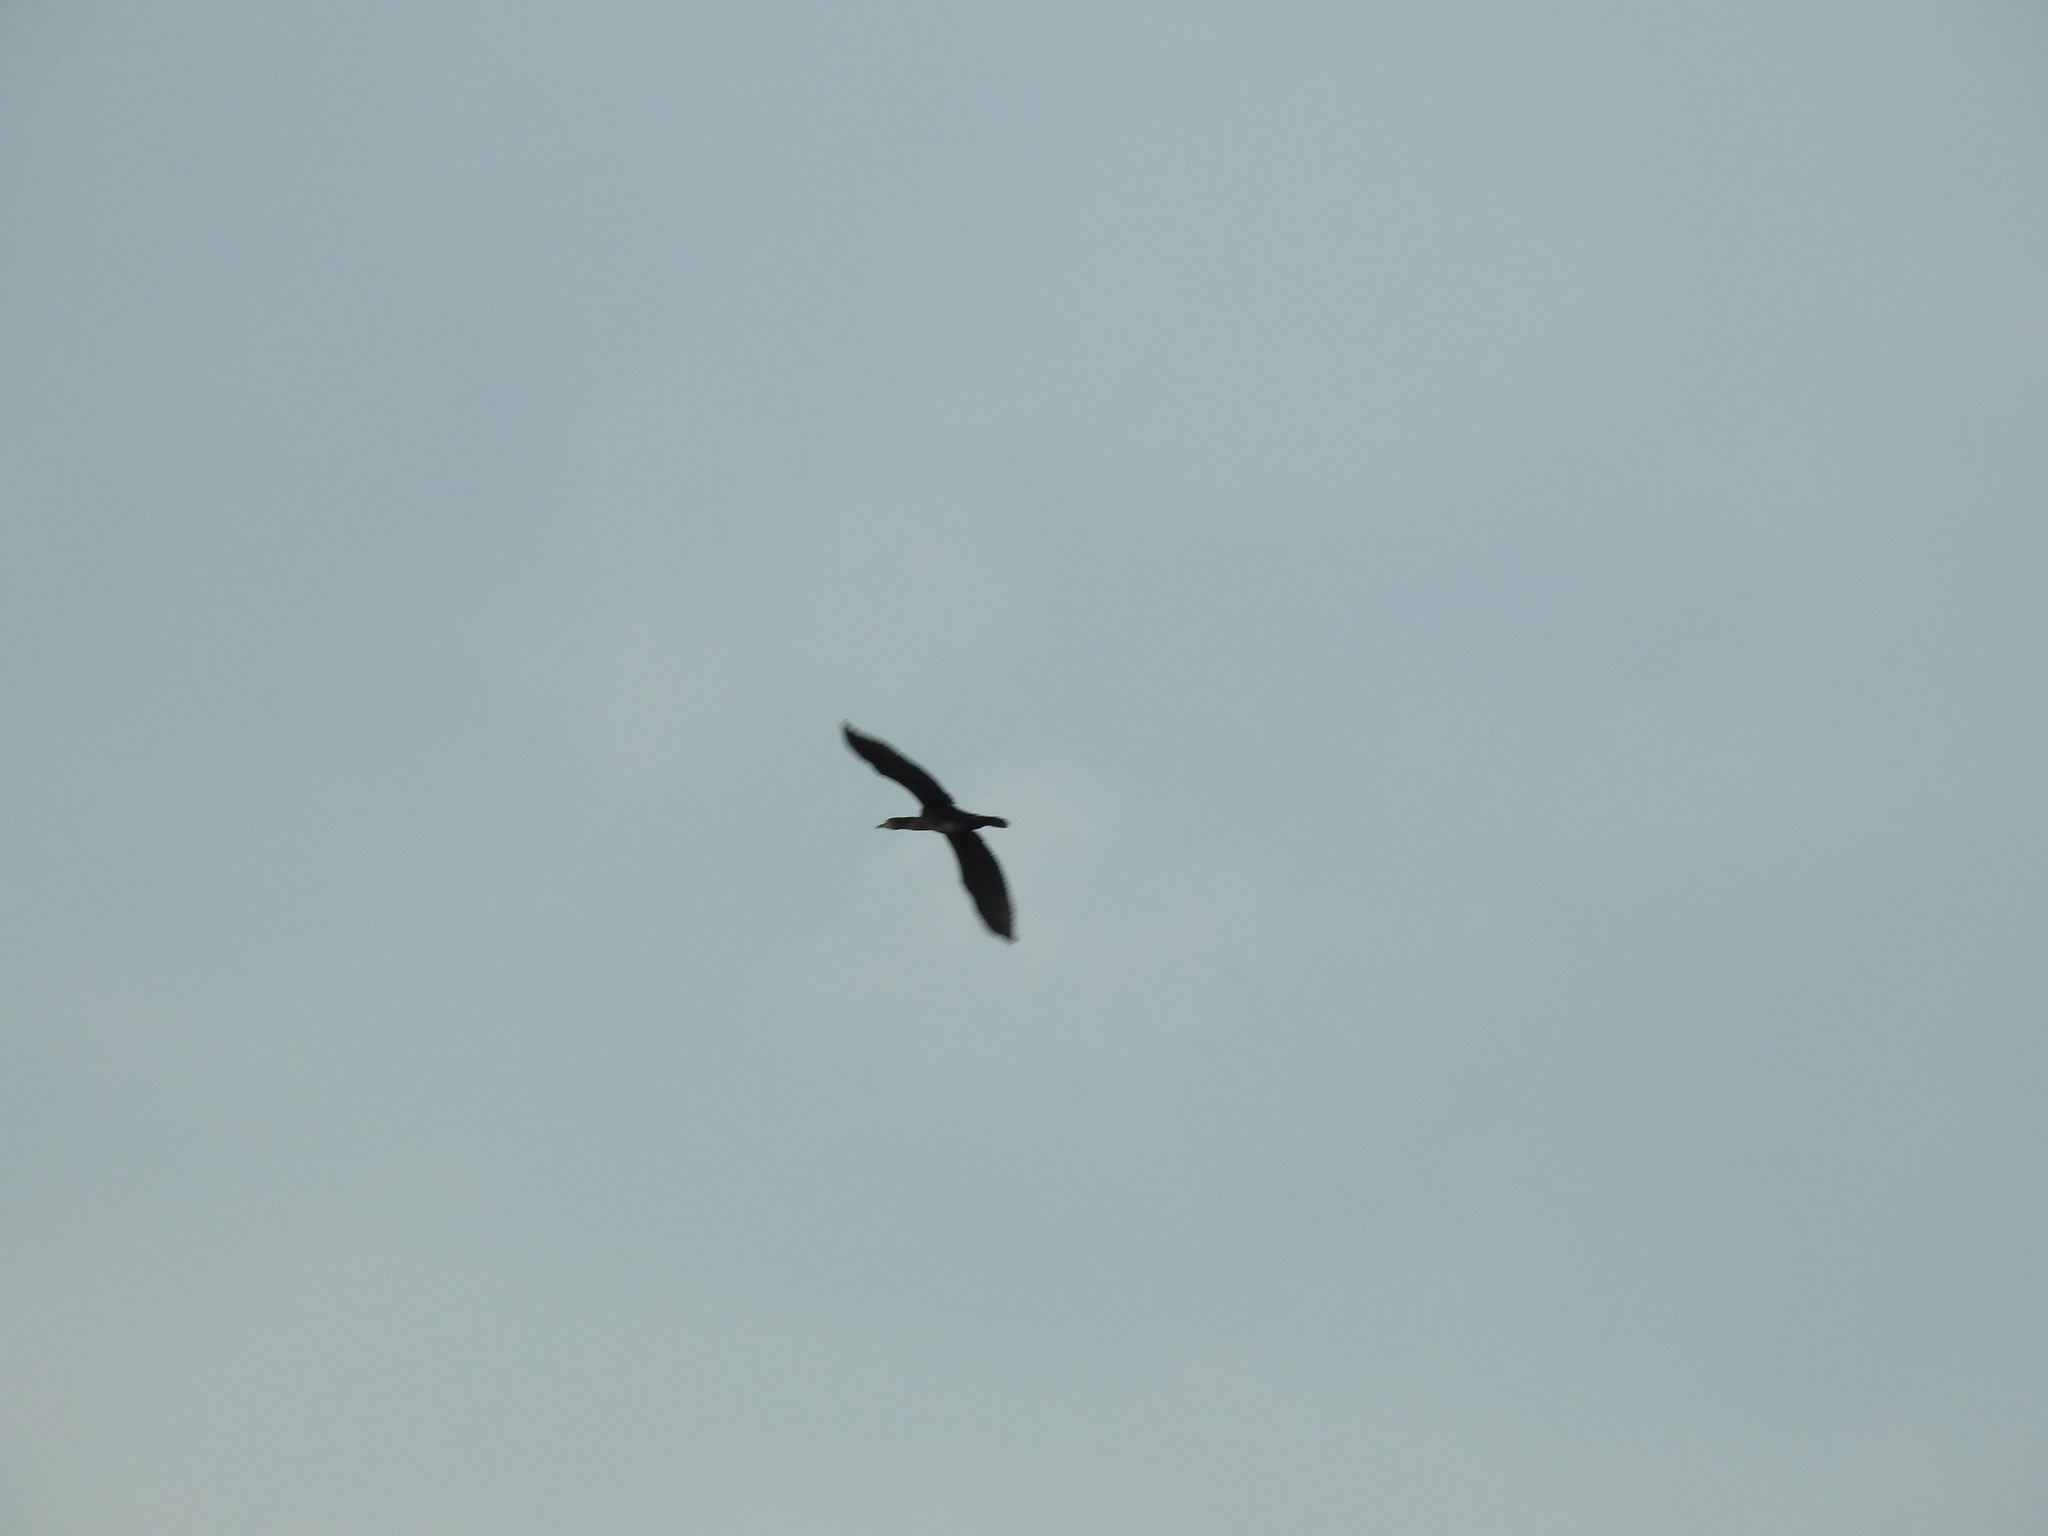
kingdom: Animalia
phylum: Chordata
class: Aves
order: Suliformes
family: Phalacrocoracidae
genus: Phalacrocorax
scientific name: Phalacrocorax carbo
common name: Great cormorant
